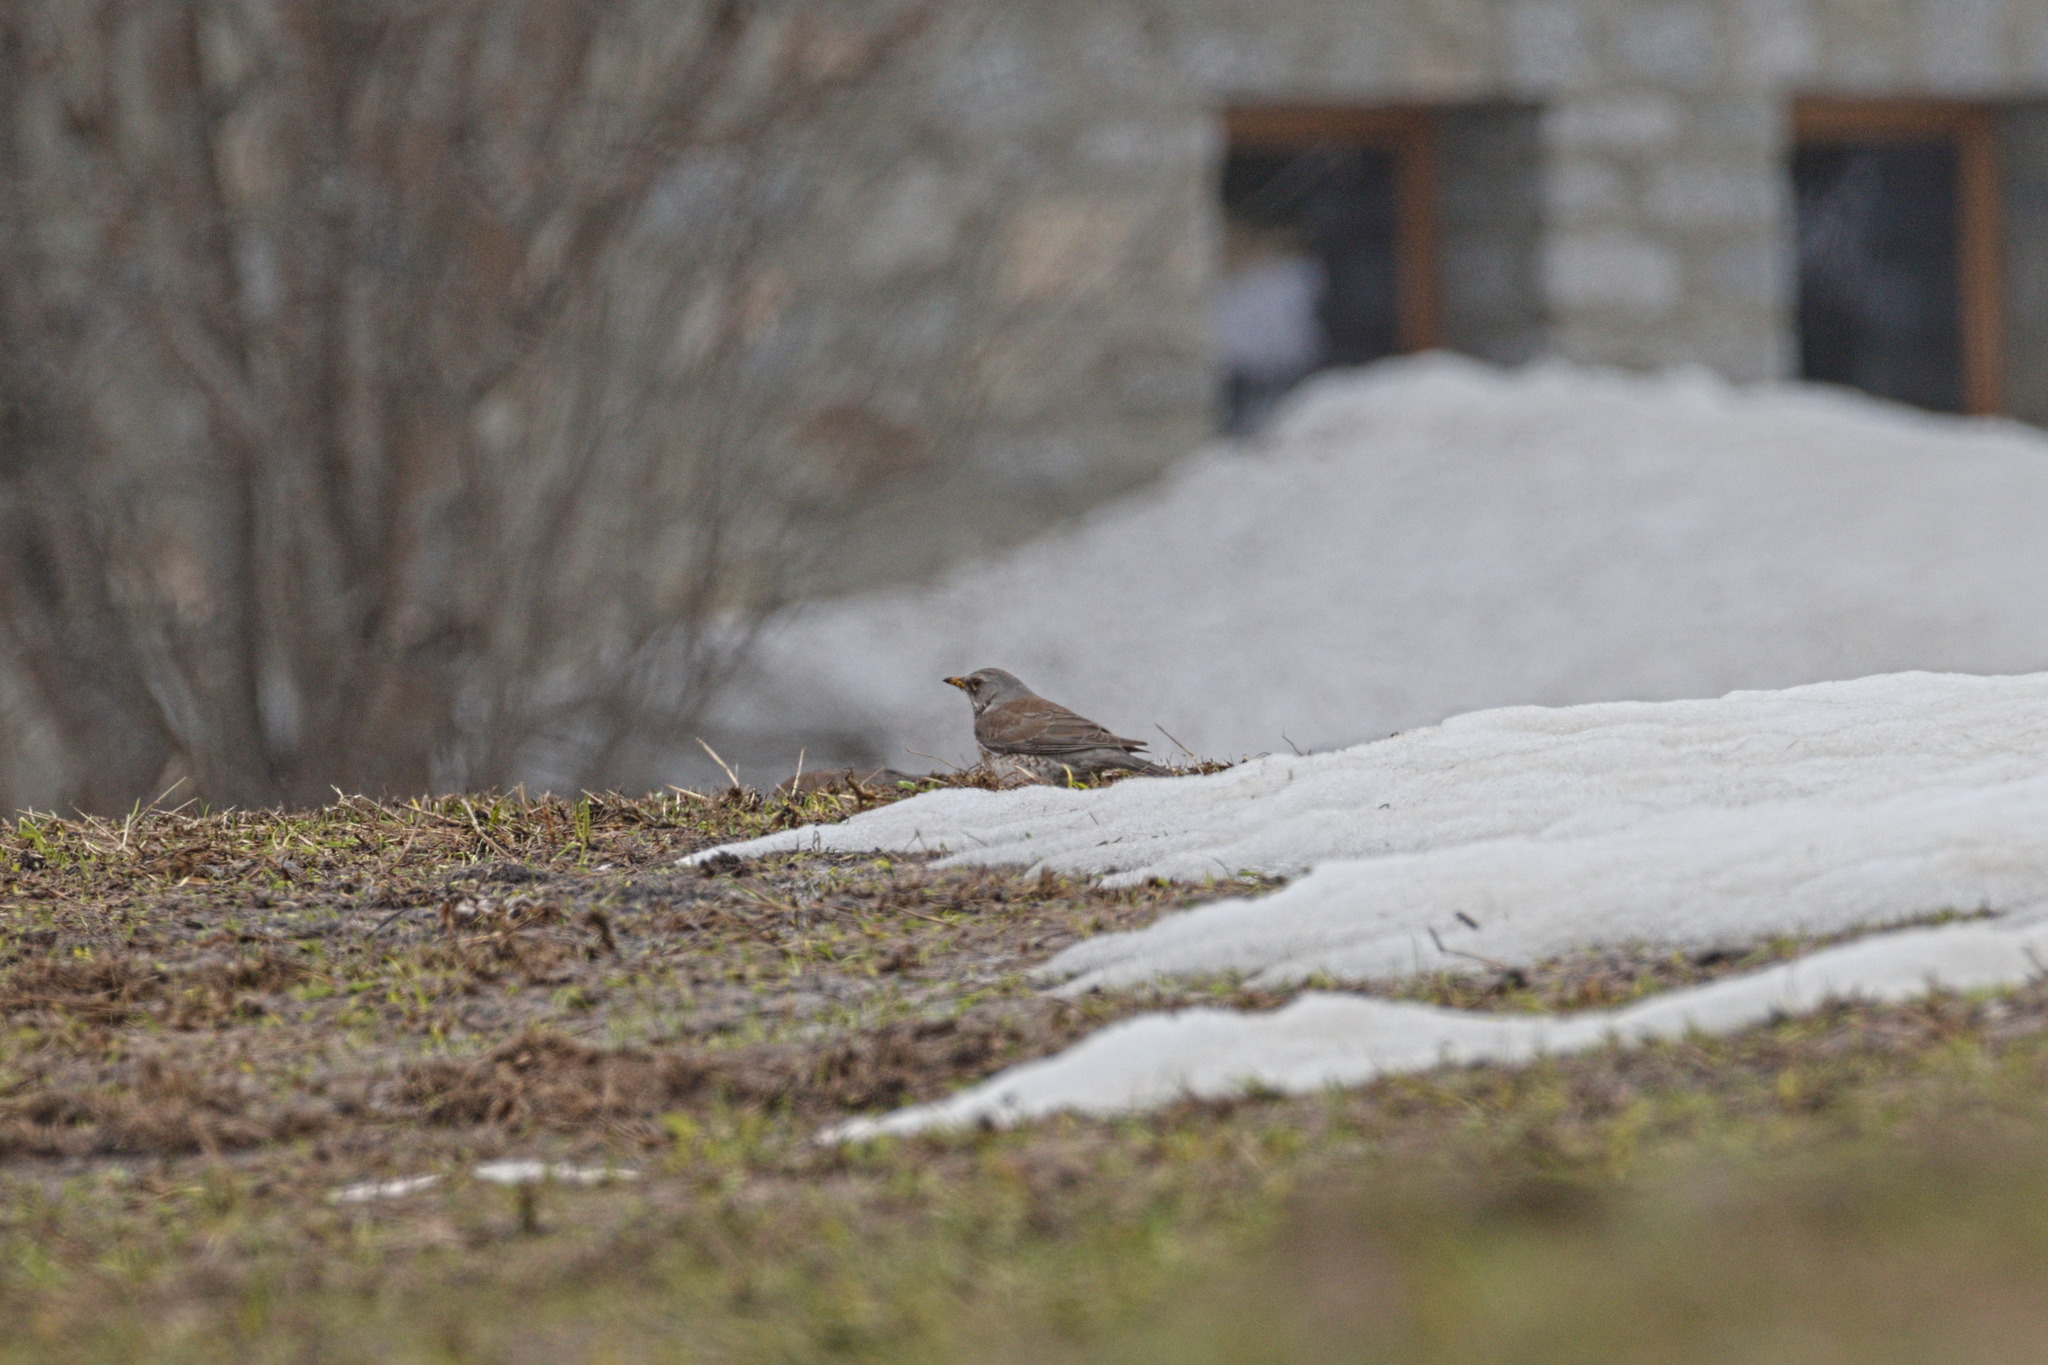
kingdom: Animalia
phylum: Chordata
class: Aves
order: Passeriformes
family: Turdidae
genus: Turdus
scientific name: Turdus pilaris
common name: Fieldfare
